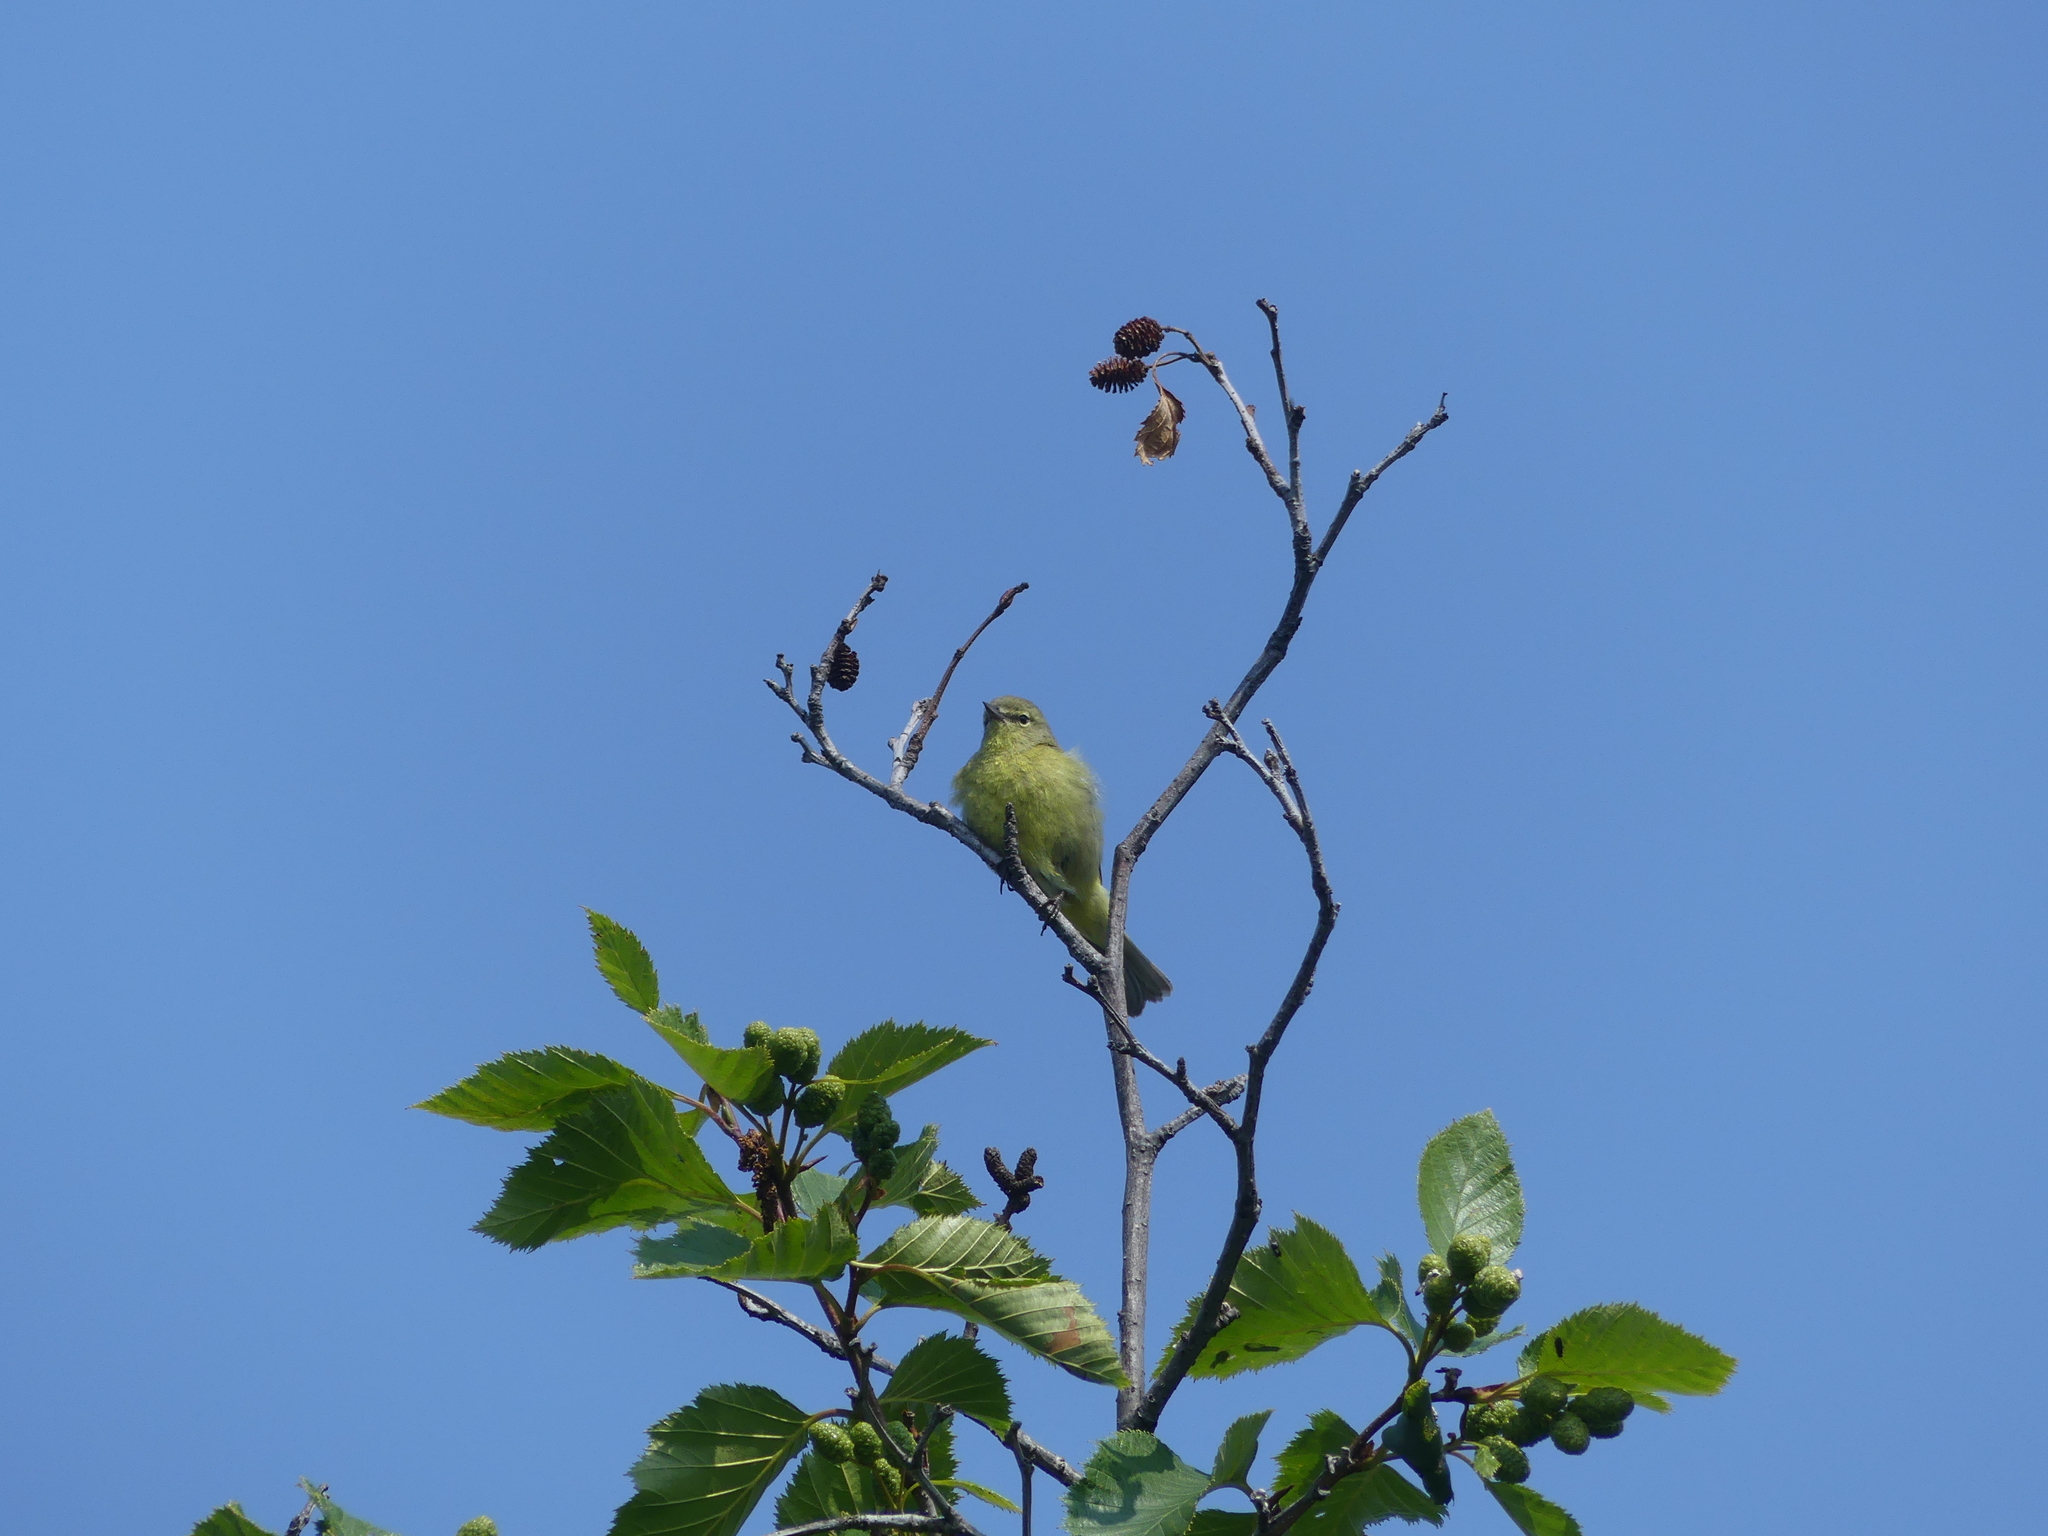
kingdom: Animalia
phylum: Chordata
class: Aves
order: Passeriformes
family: Parulidae
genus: Leiothlypis
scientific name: Leiothlypis celata
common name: Orange-crowned warbler
